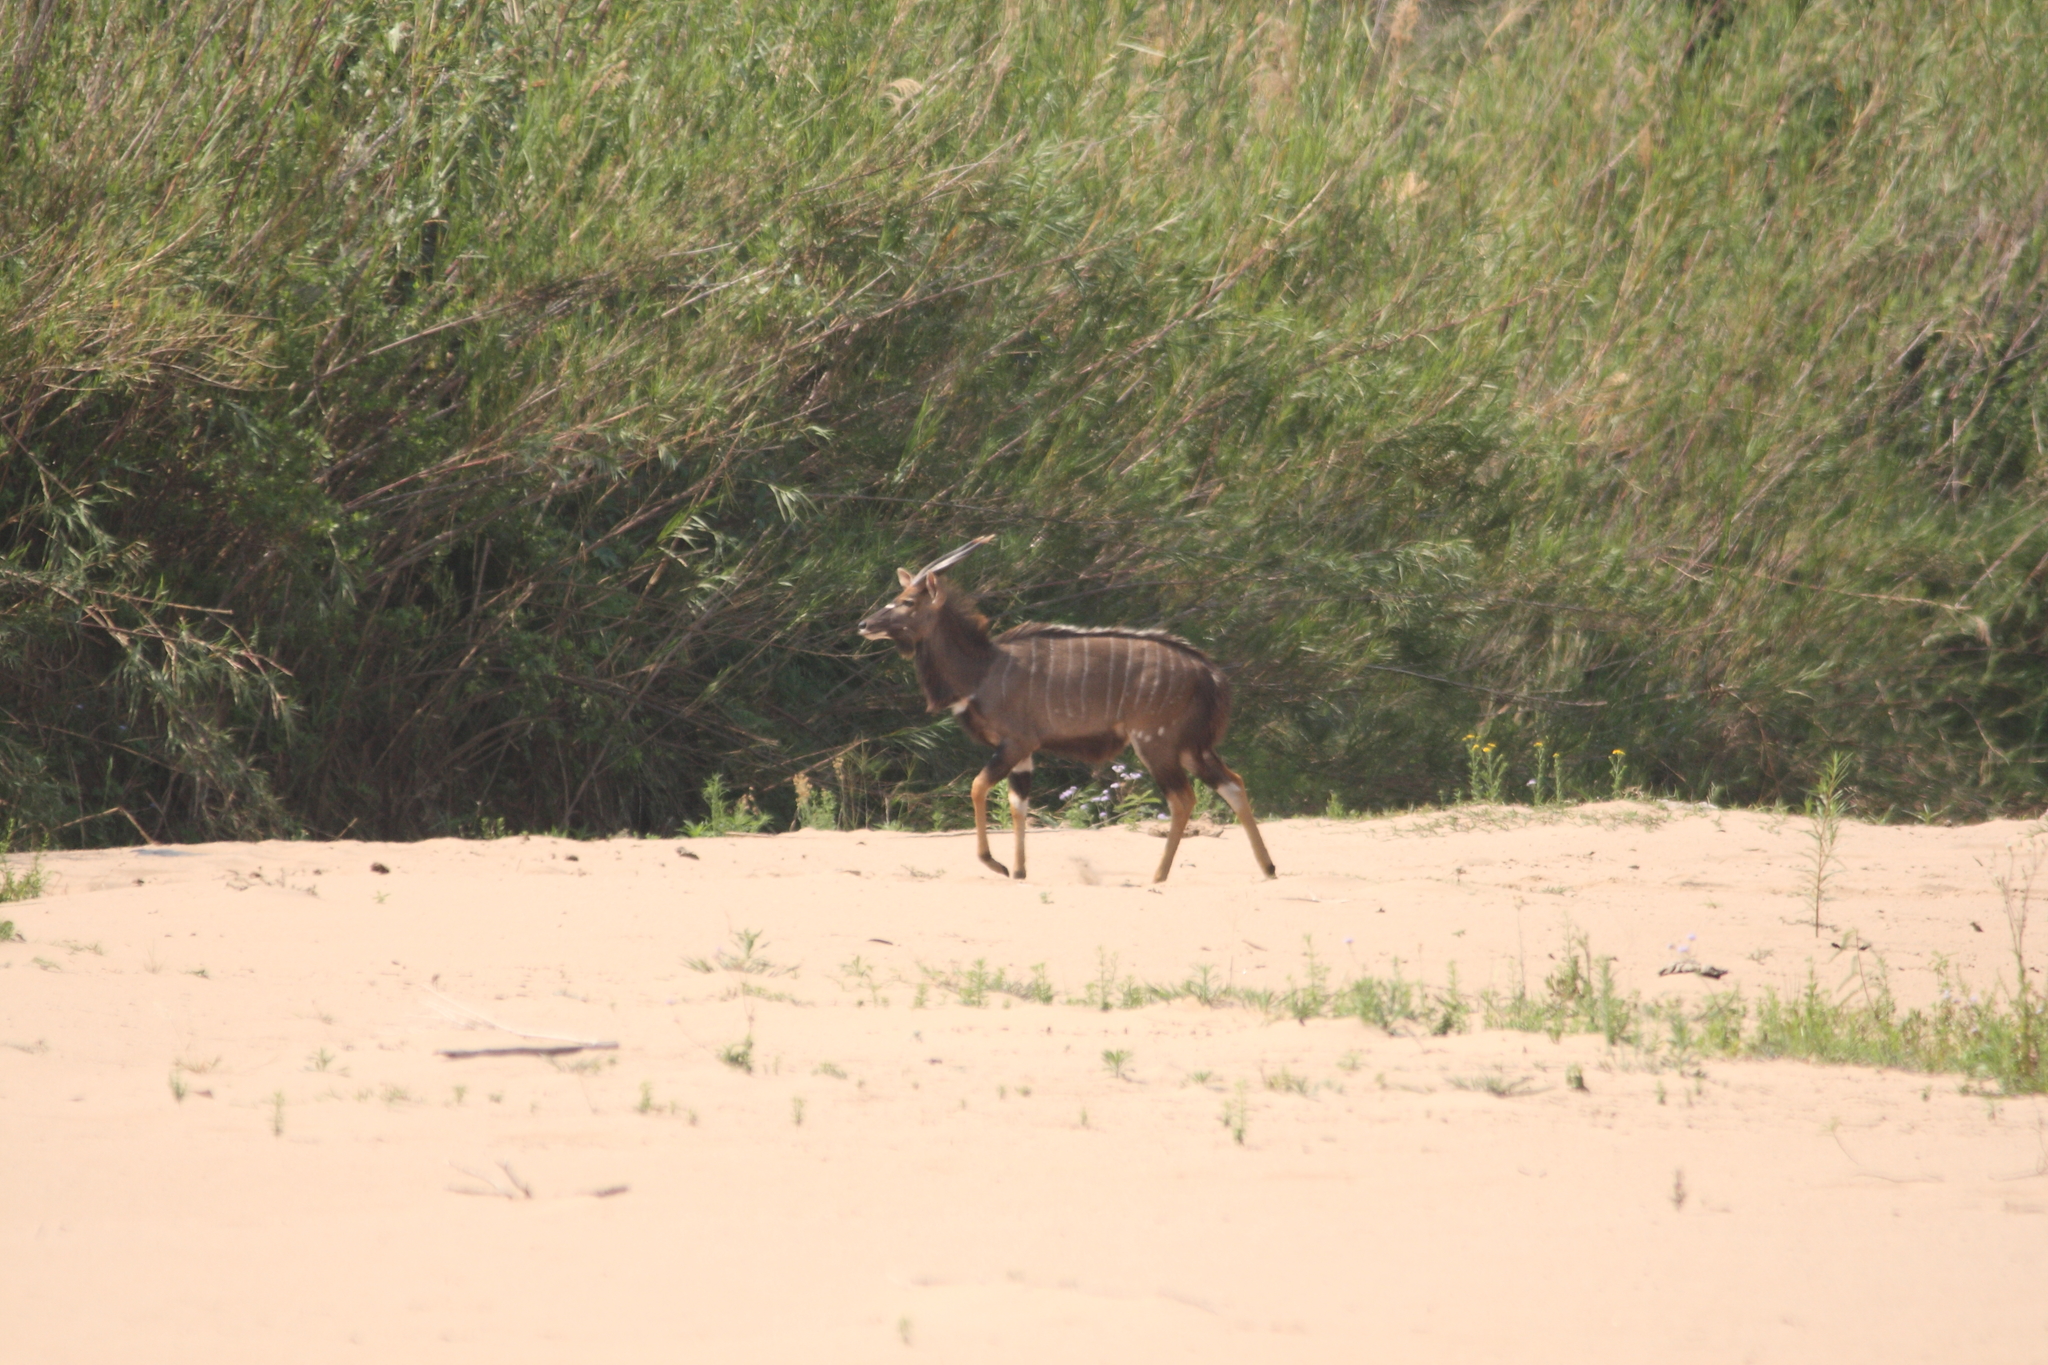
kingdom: Animalia
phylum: Chordata
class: Mammalia
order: Artiodactyla
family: Bovidae
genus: Tragelaphus
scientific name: Tragelaphus angasii
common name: Nyala
